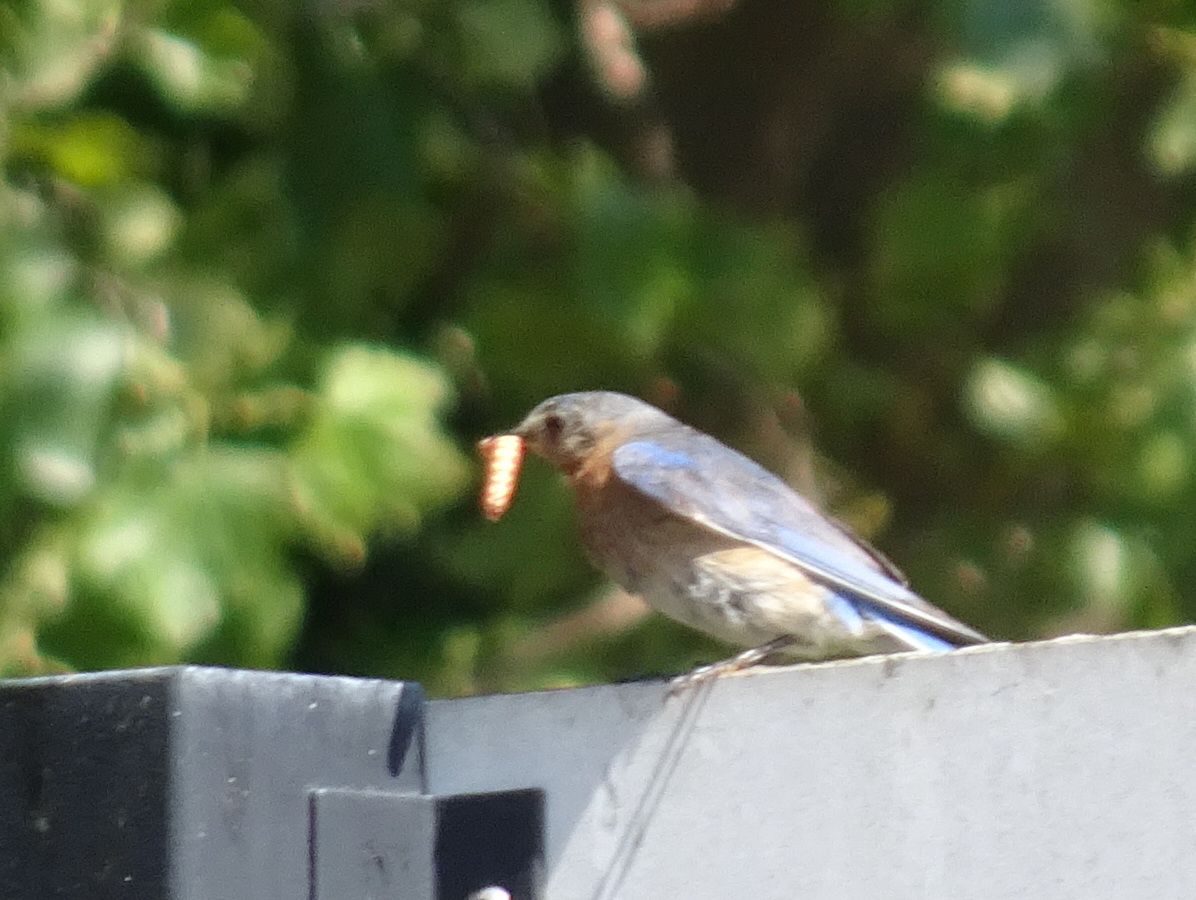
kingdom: Animalia
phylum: Chordata
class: Aves
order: Passeriformes
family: Turdidae
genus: Sialia
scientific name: Sialia sialis
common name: Eastern bluebird
